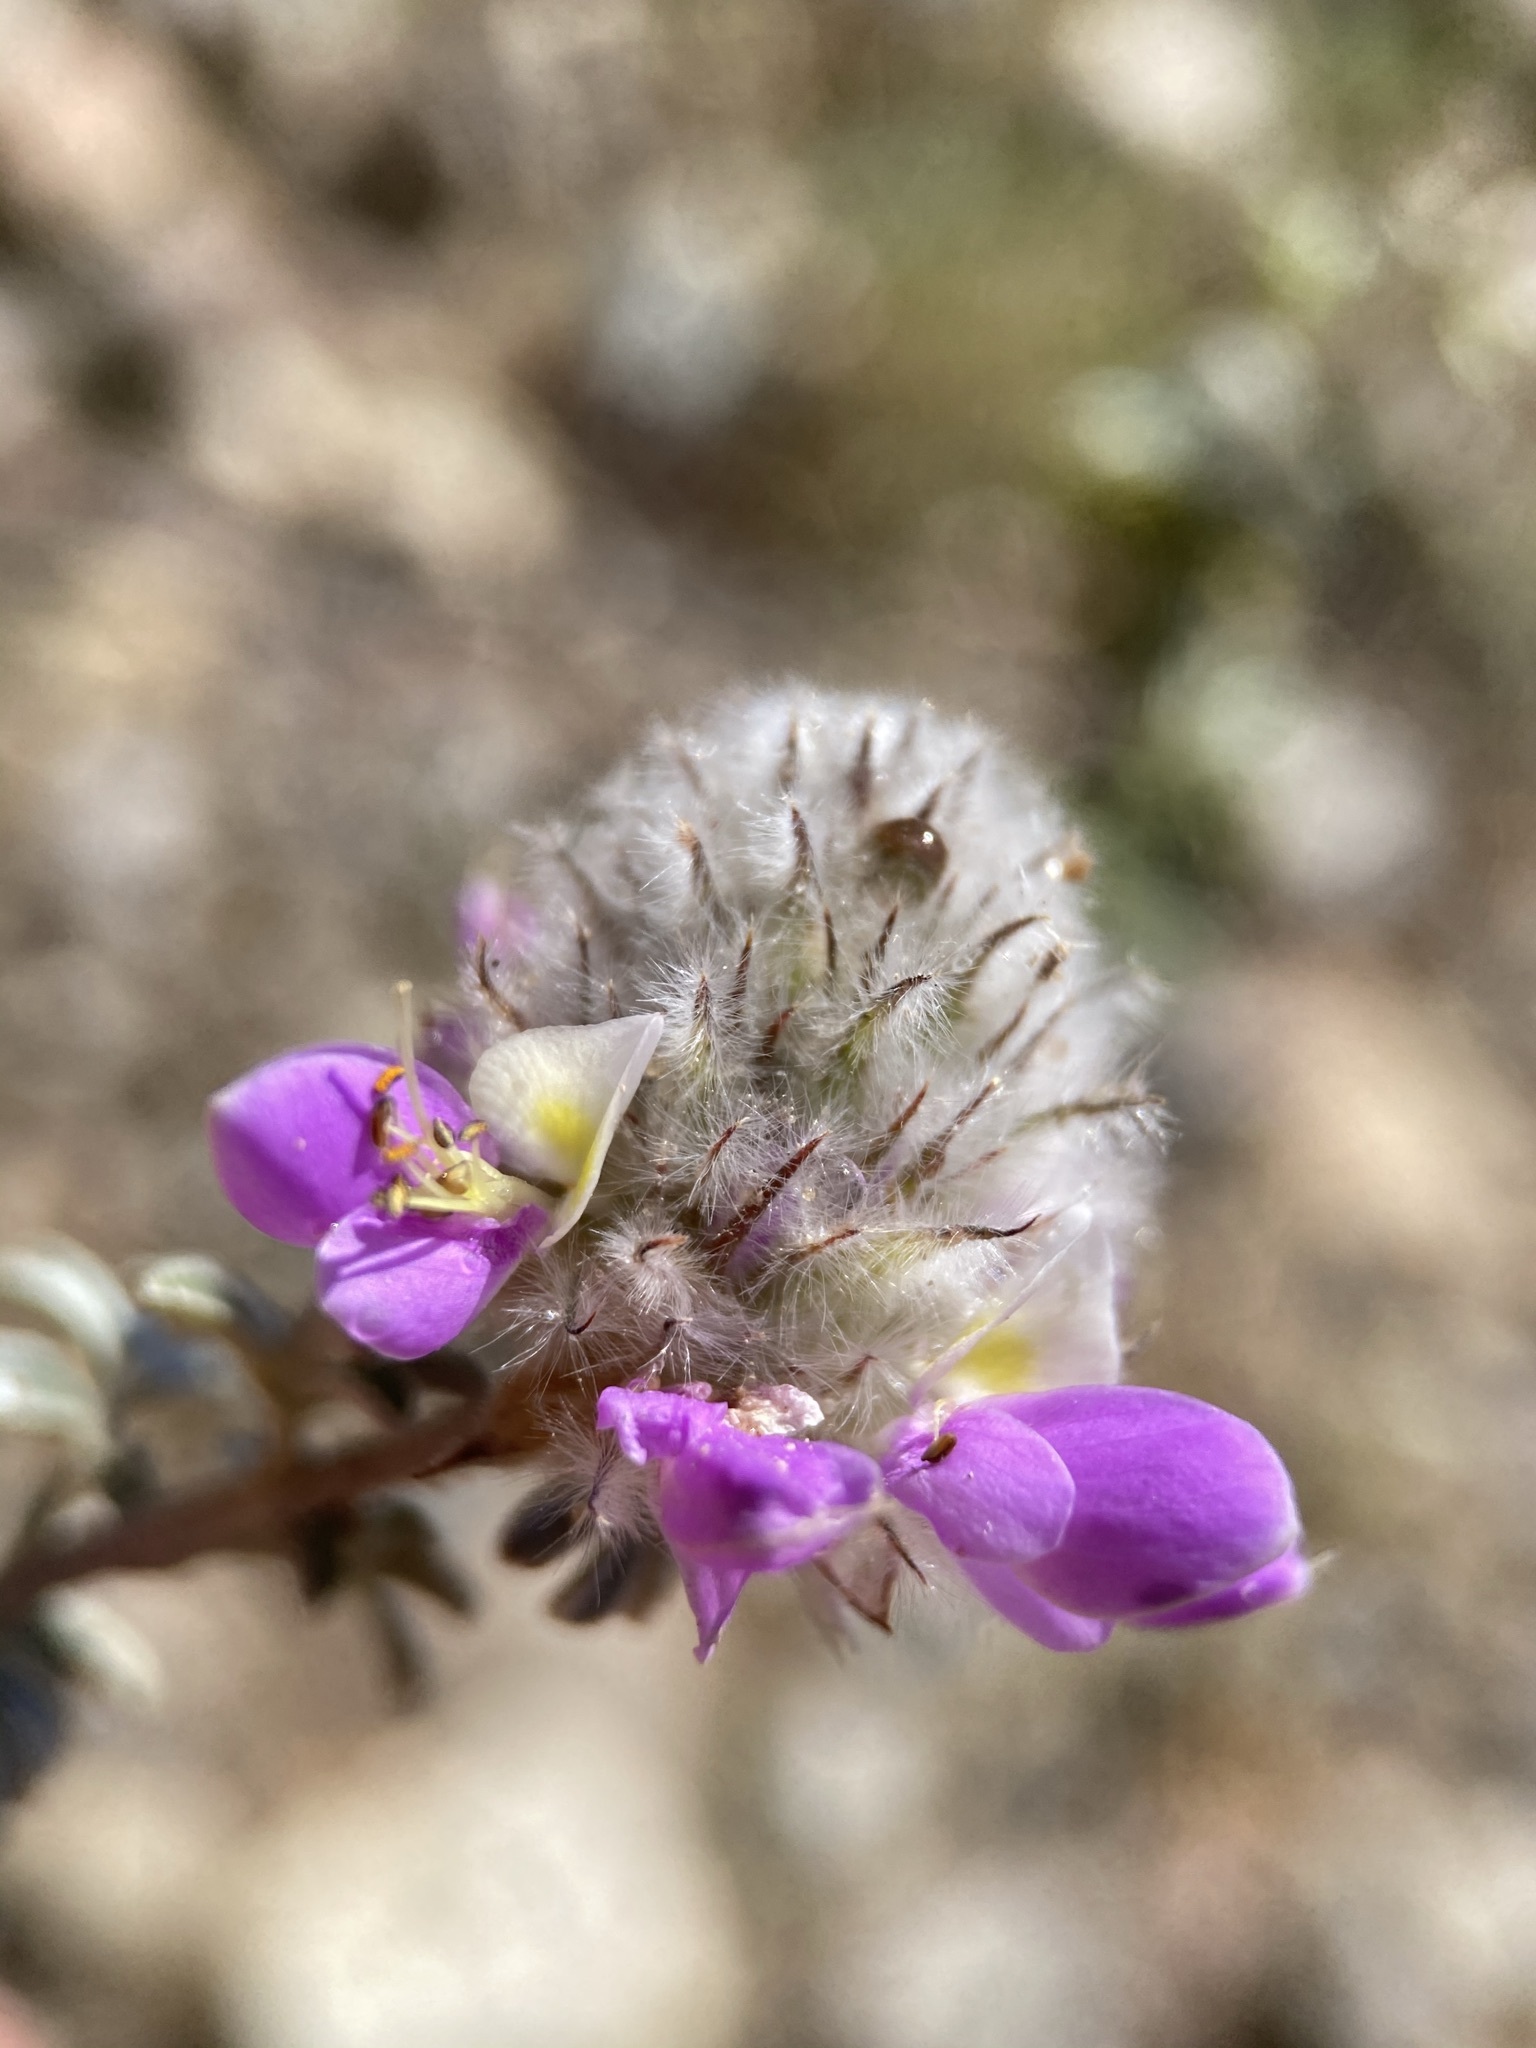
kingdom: Plantae
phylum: Tracheophyta
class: Magnoliopsida
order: Fabales
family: Fabaceae
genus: Dalea
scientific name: Dalea pulchra
